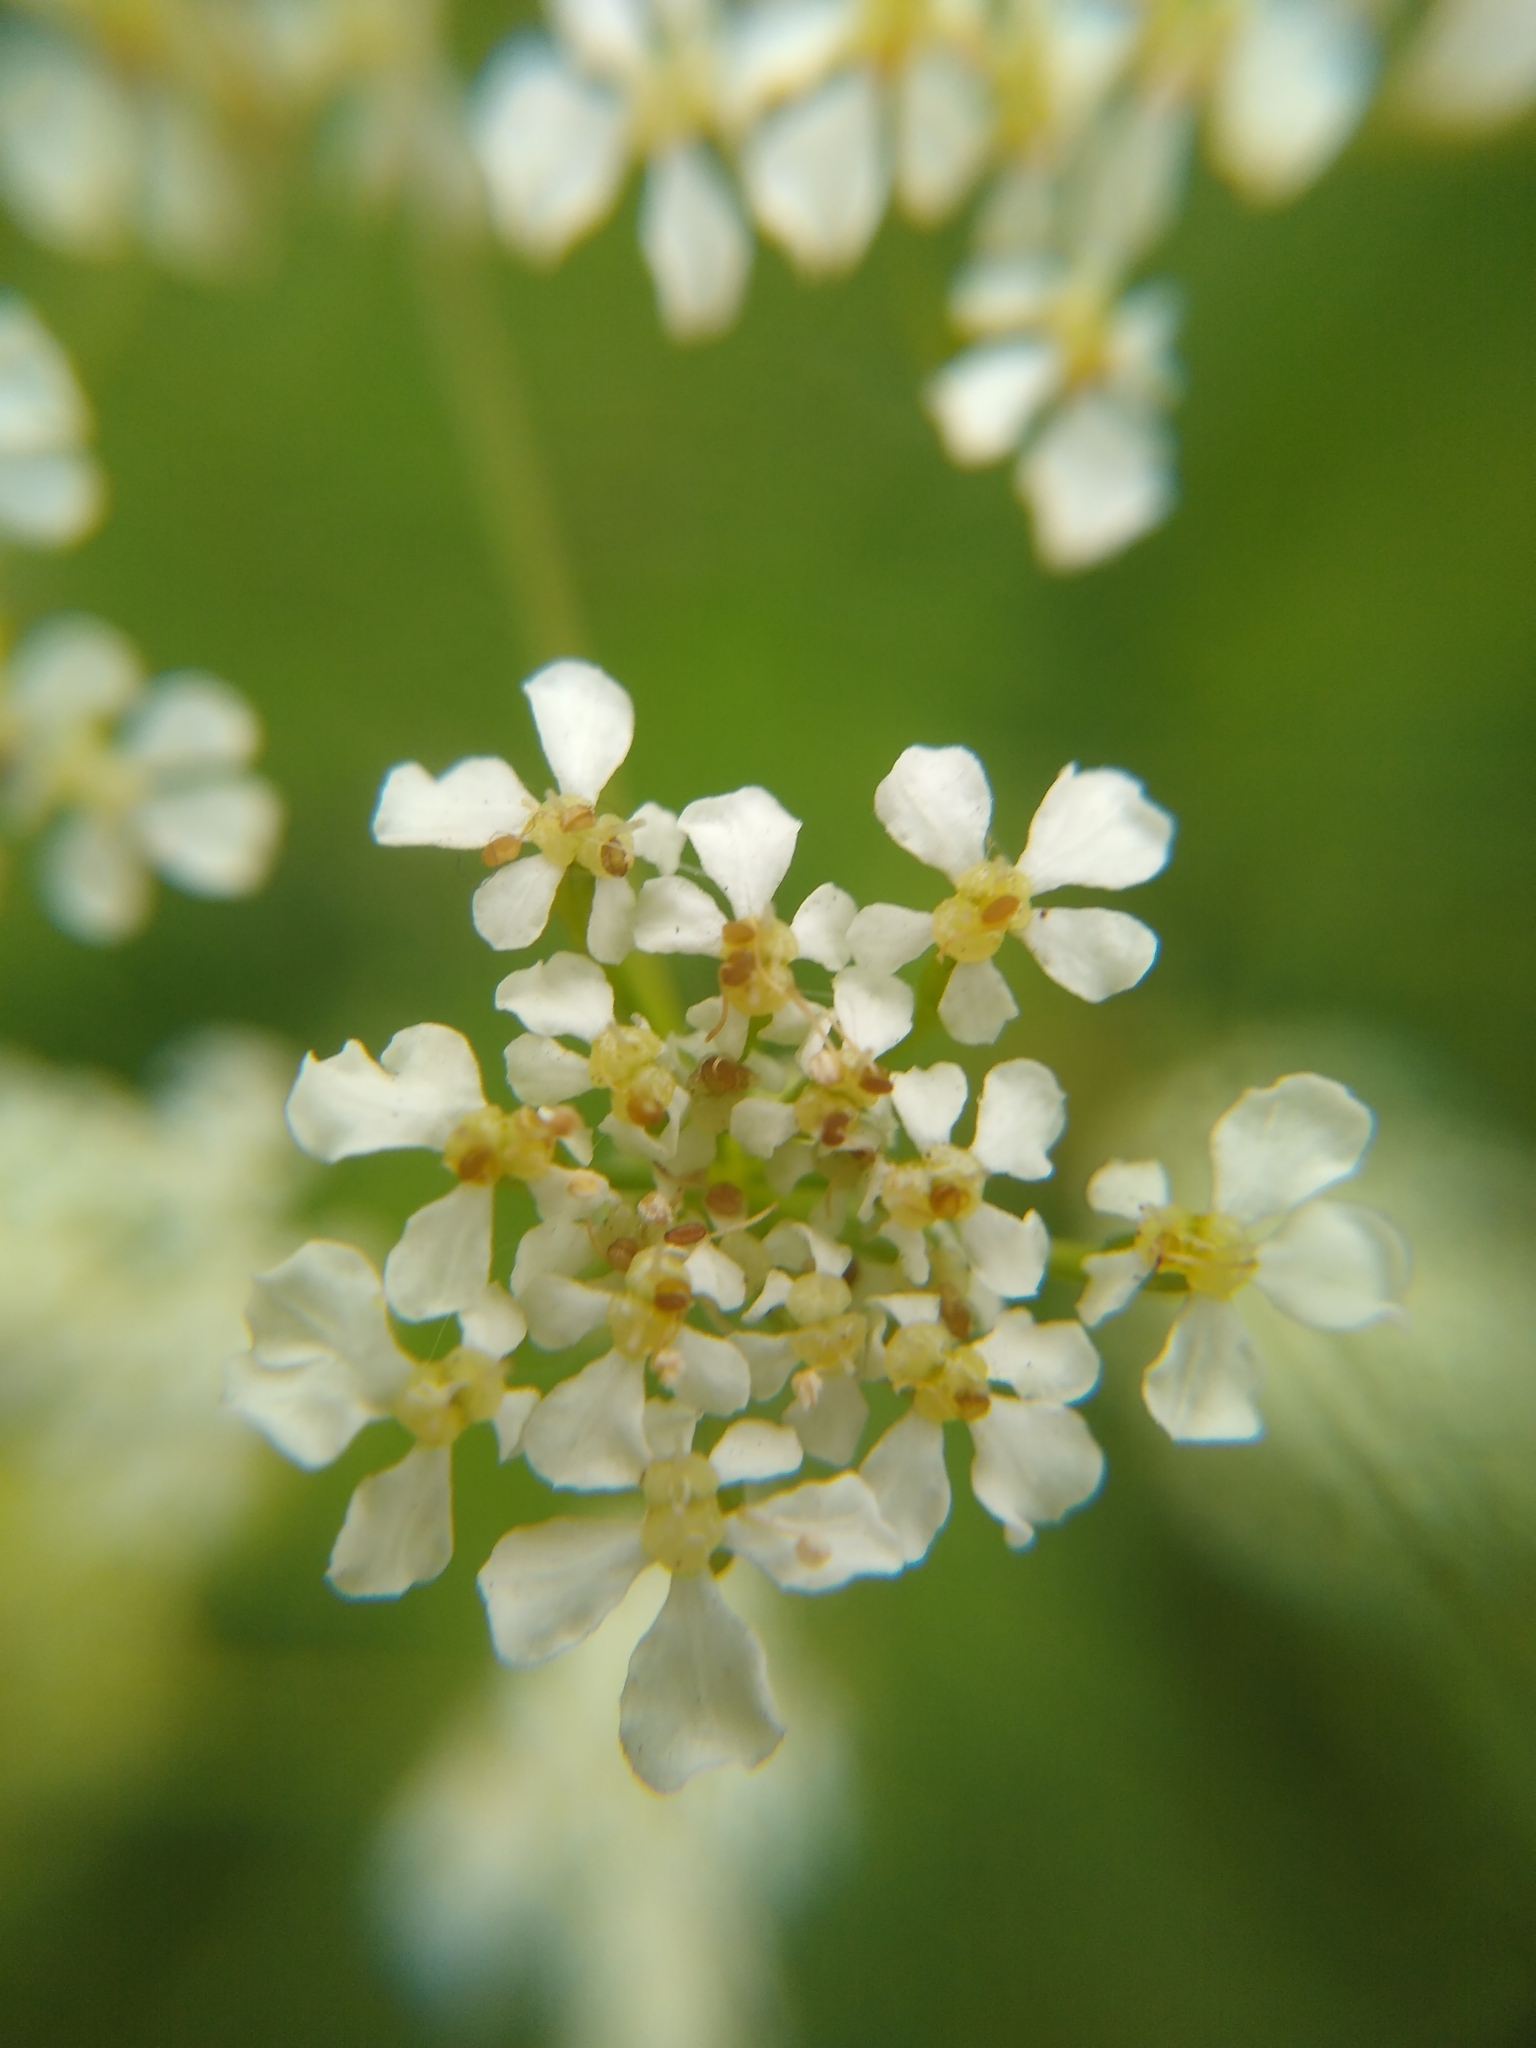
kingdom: Plantae
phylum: Tracheophyta
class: Magnoliopsida
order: Apiales
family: Apiaceae
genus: Anthriscus
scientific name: Anthriscus sylvestris
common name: Cow parsley
